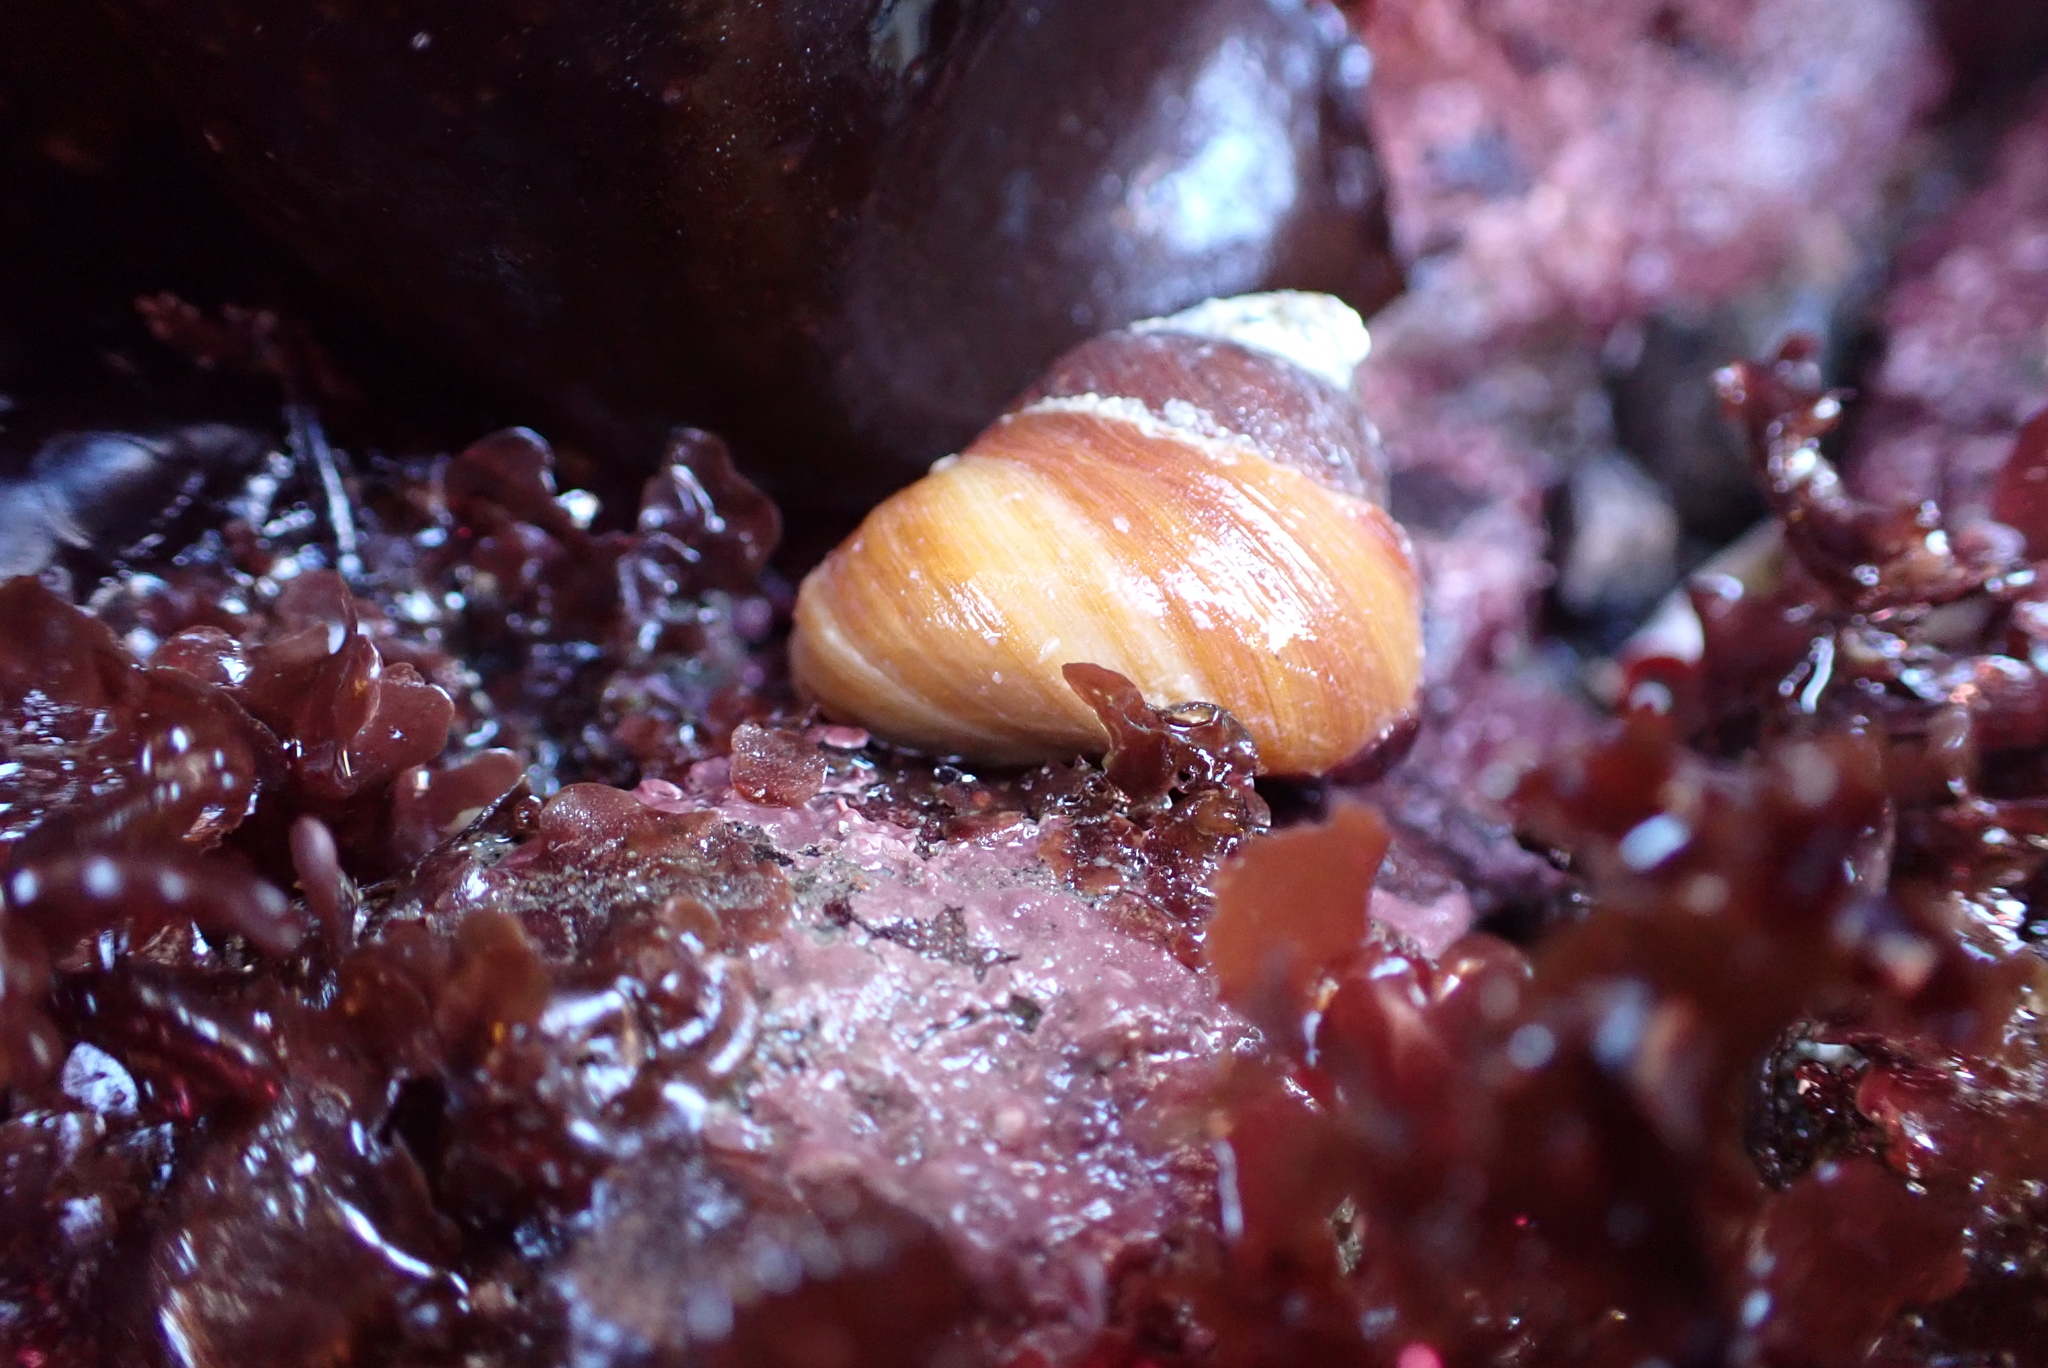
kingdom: Animalia
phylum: Mollusca
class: Gastropoda
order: Trochida
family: Tegulidae
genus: Tegula
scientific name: Tegula brunnea
